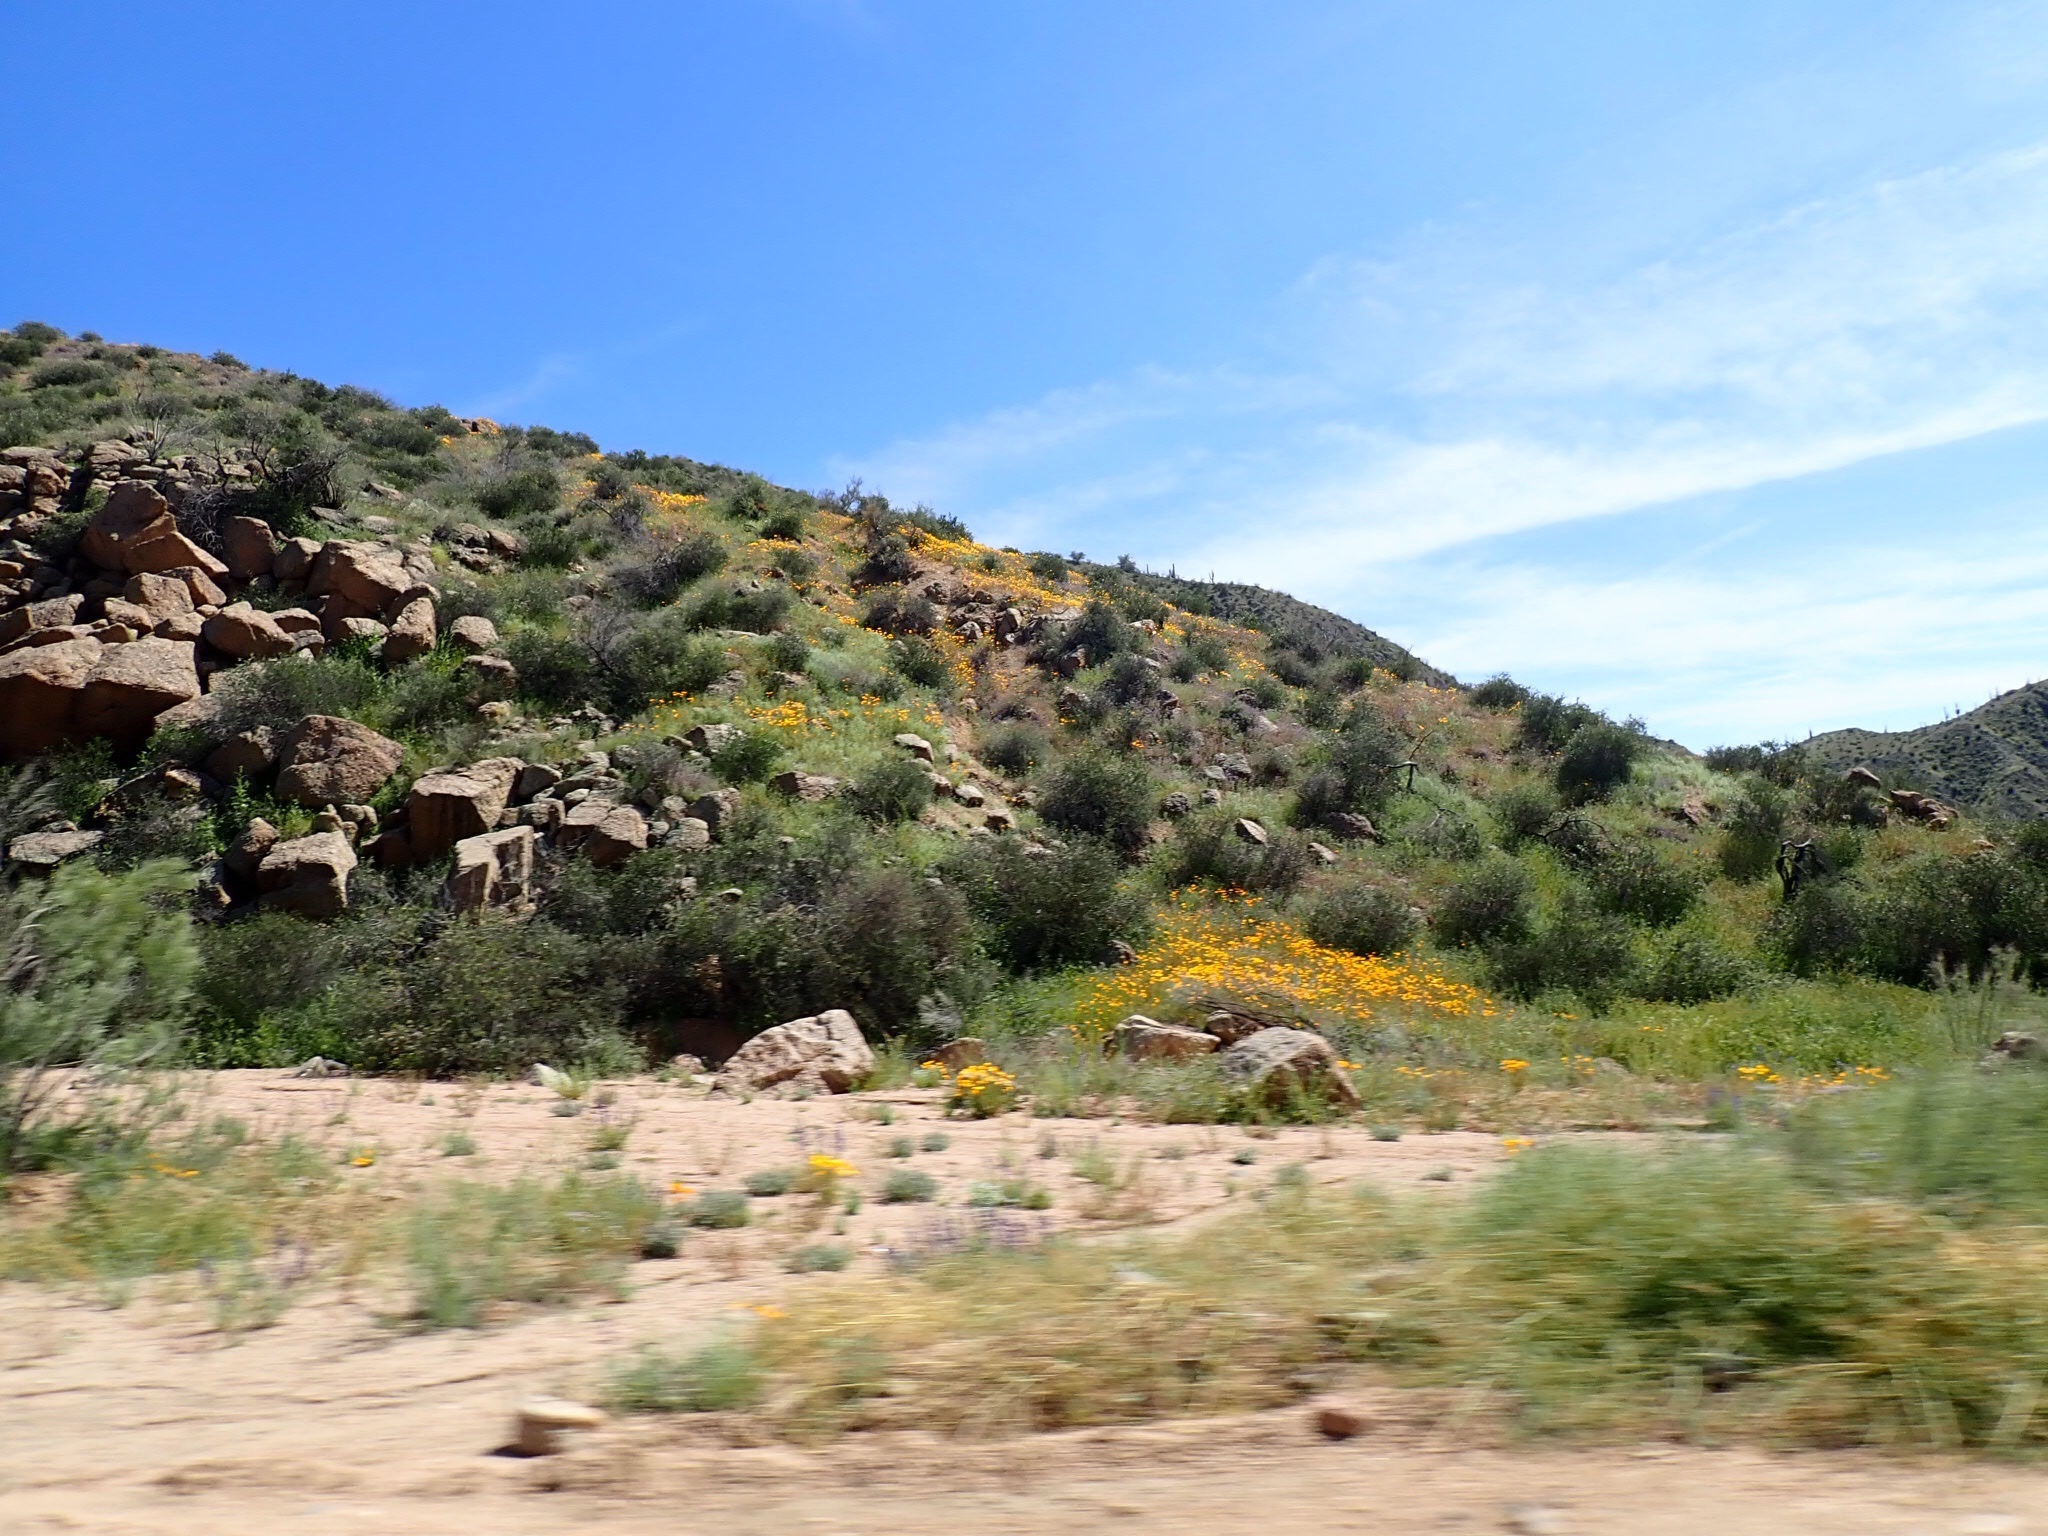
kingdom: Plantae
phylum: Tracheophyta
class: Magnoliopsida
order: Ranunculales
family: Papaveraceae
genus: Eschscholzia
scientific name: Eschscholzia californica
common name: California poppy
